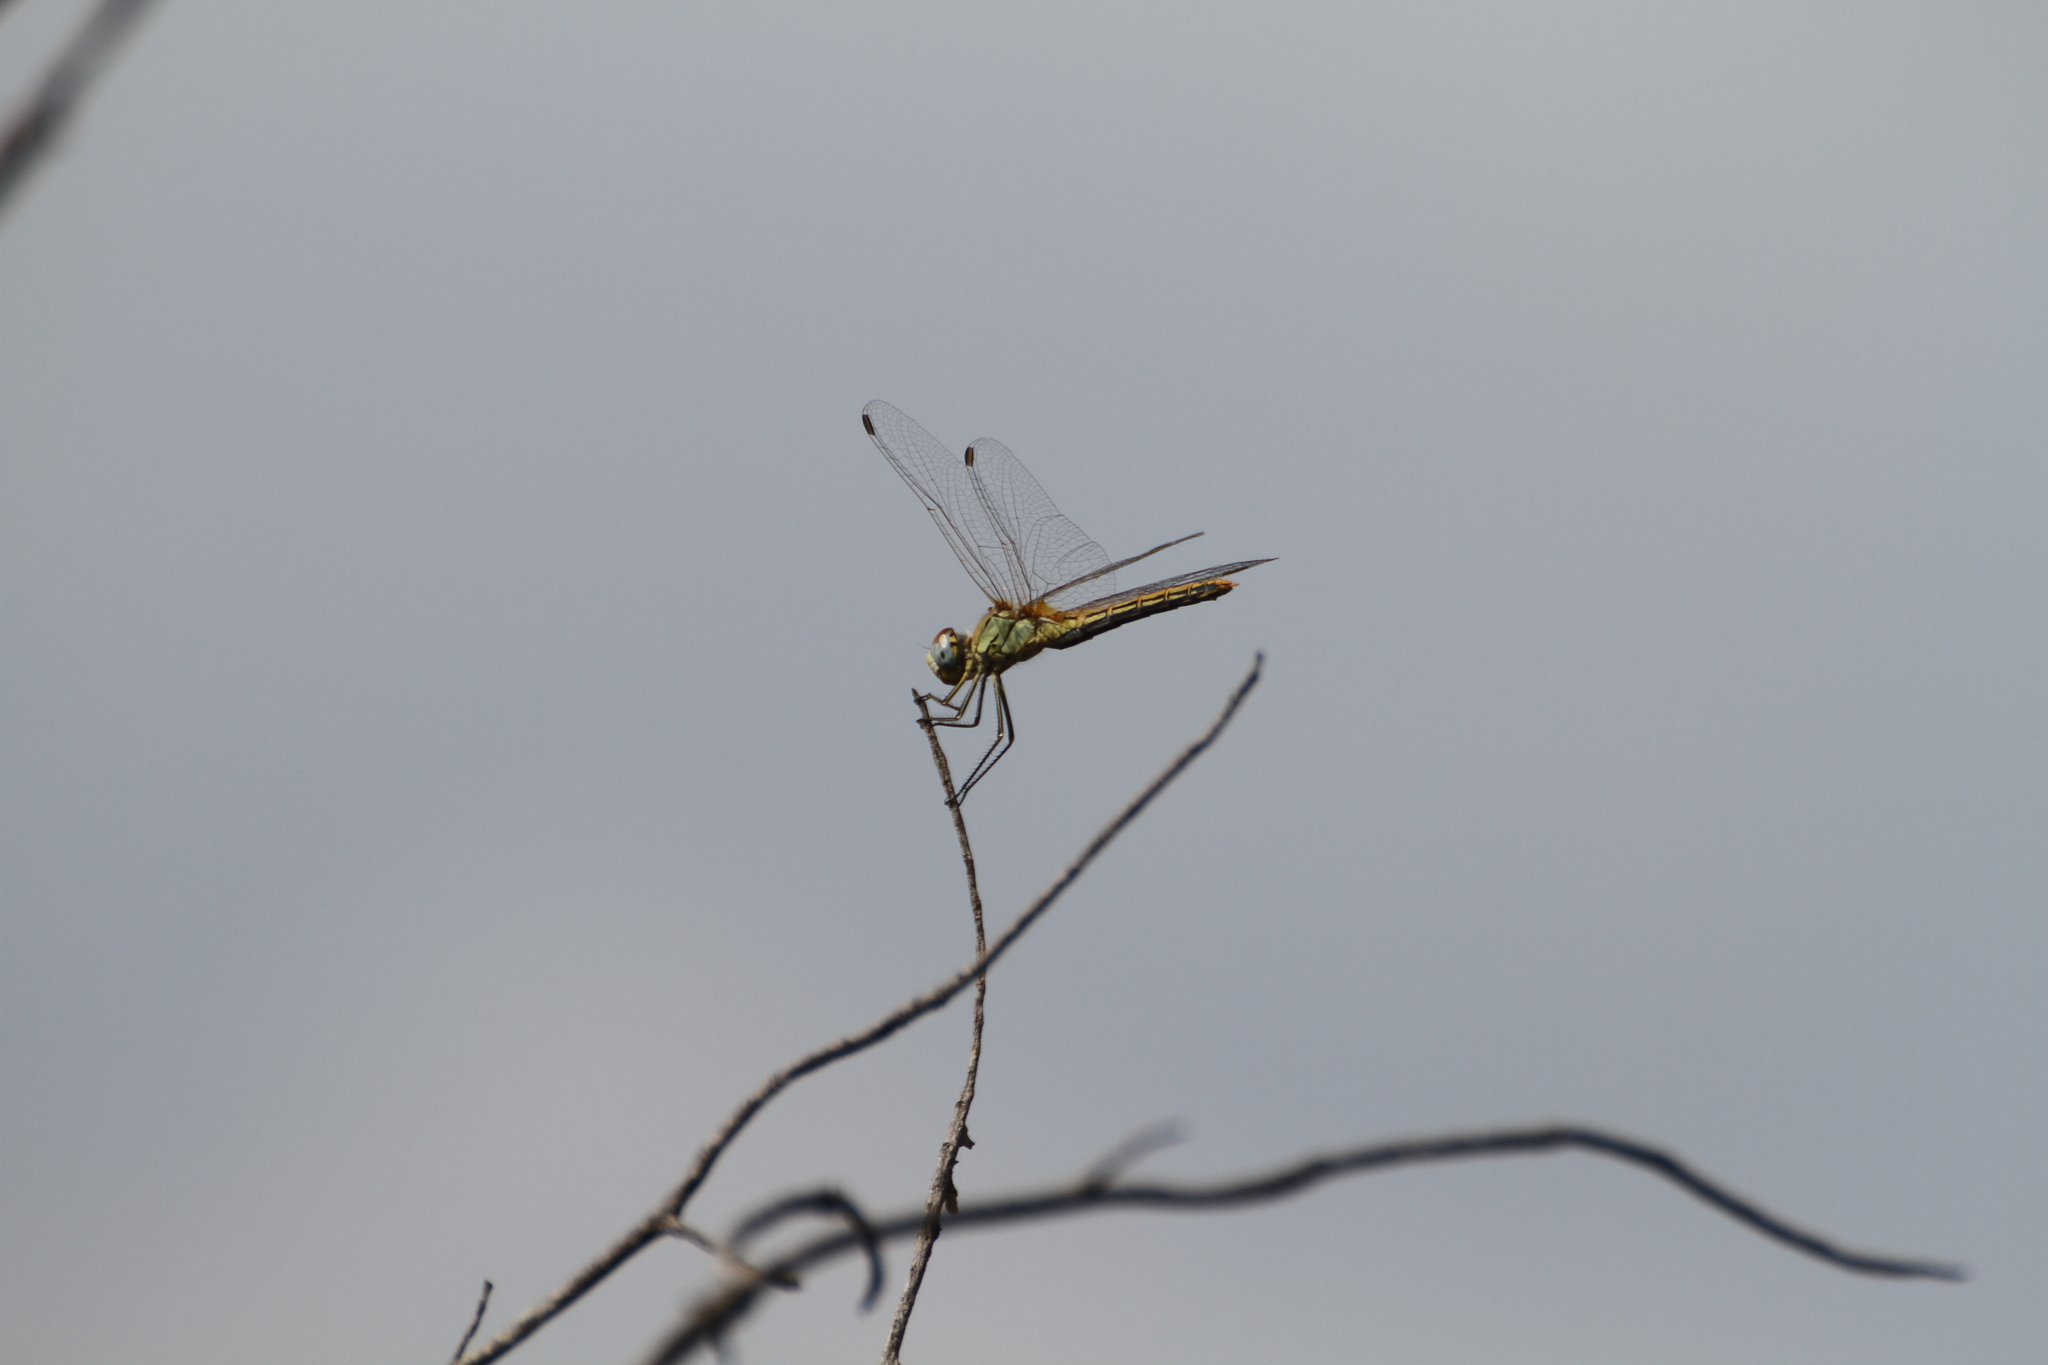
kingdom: Animalia
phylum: Arthropoda
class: Insecta
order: Odonata
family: Libellulidae
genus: Sympetrum
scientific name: Sympetrum fonscolombii
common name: Red-veined darter
